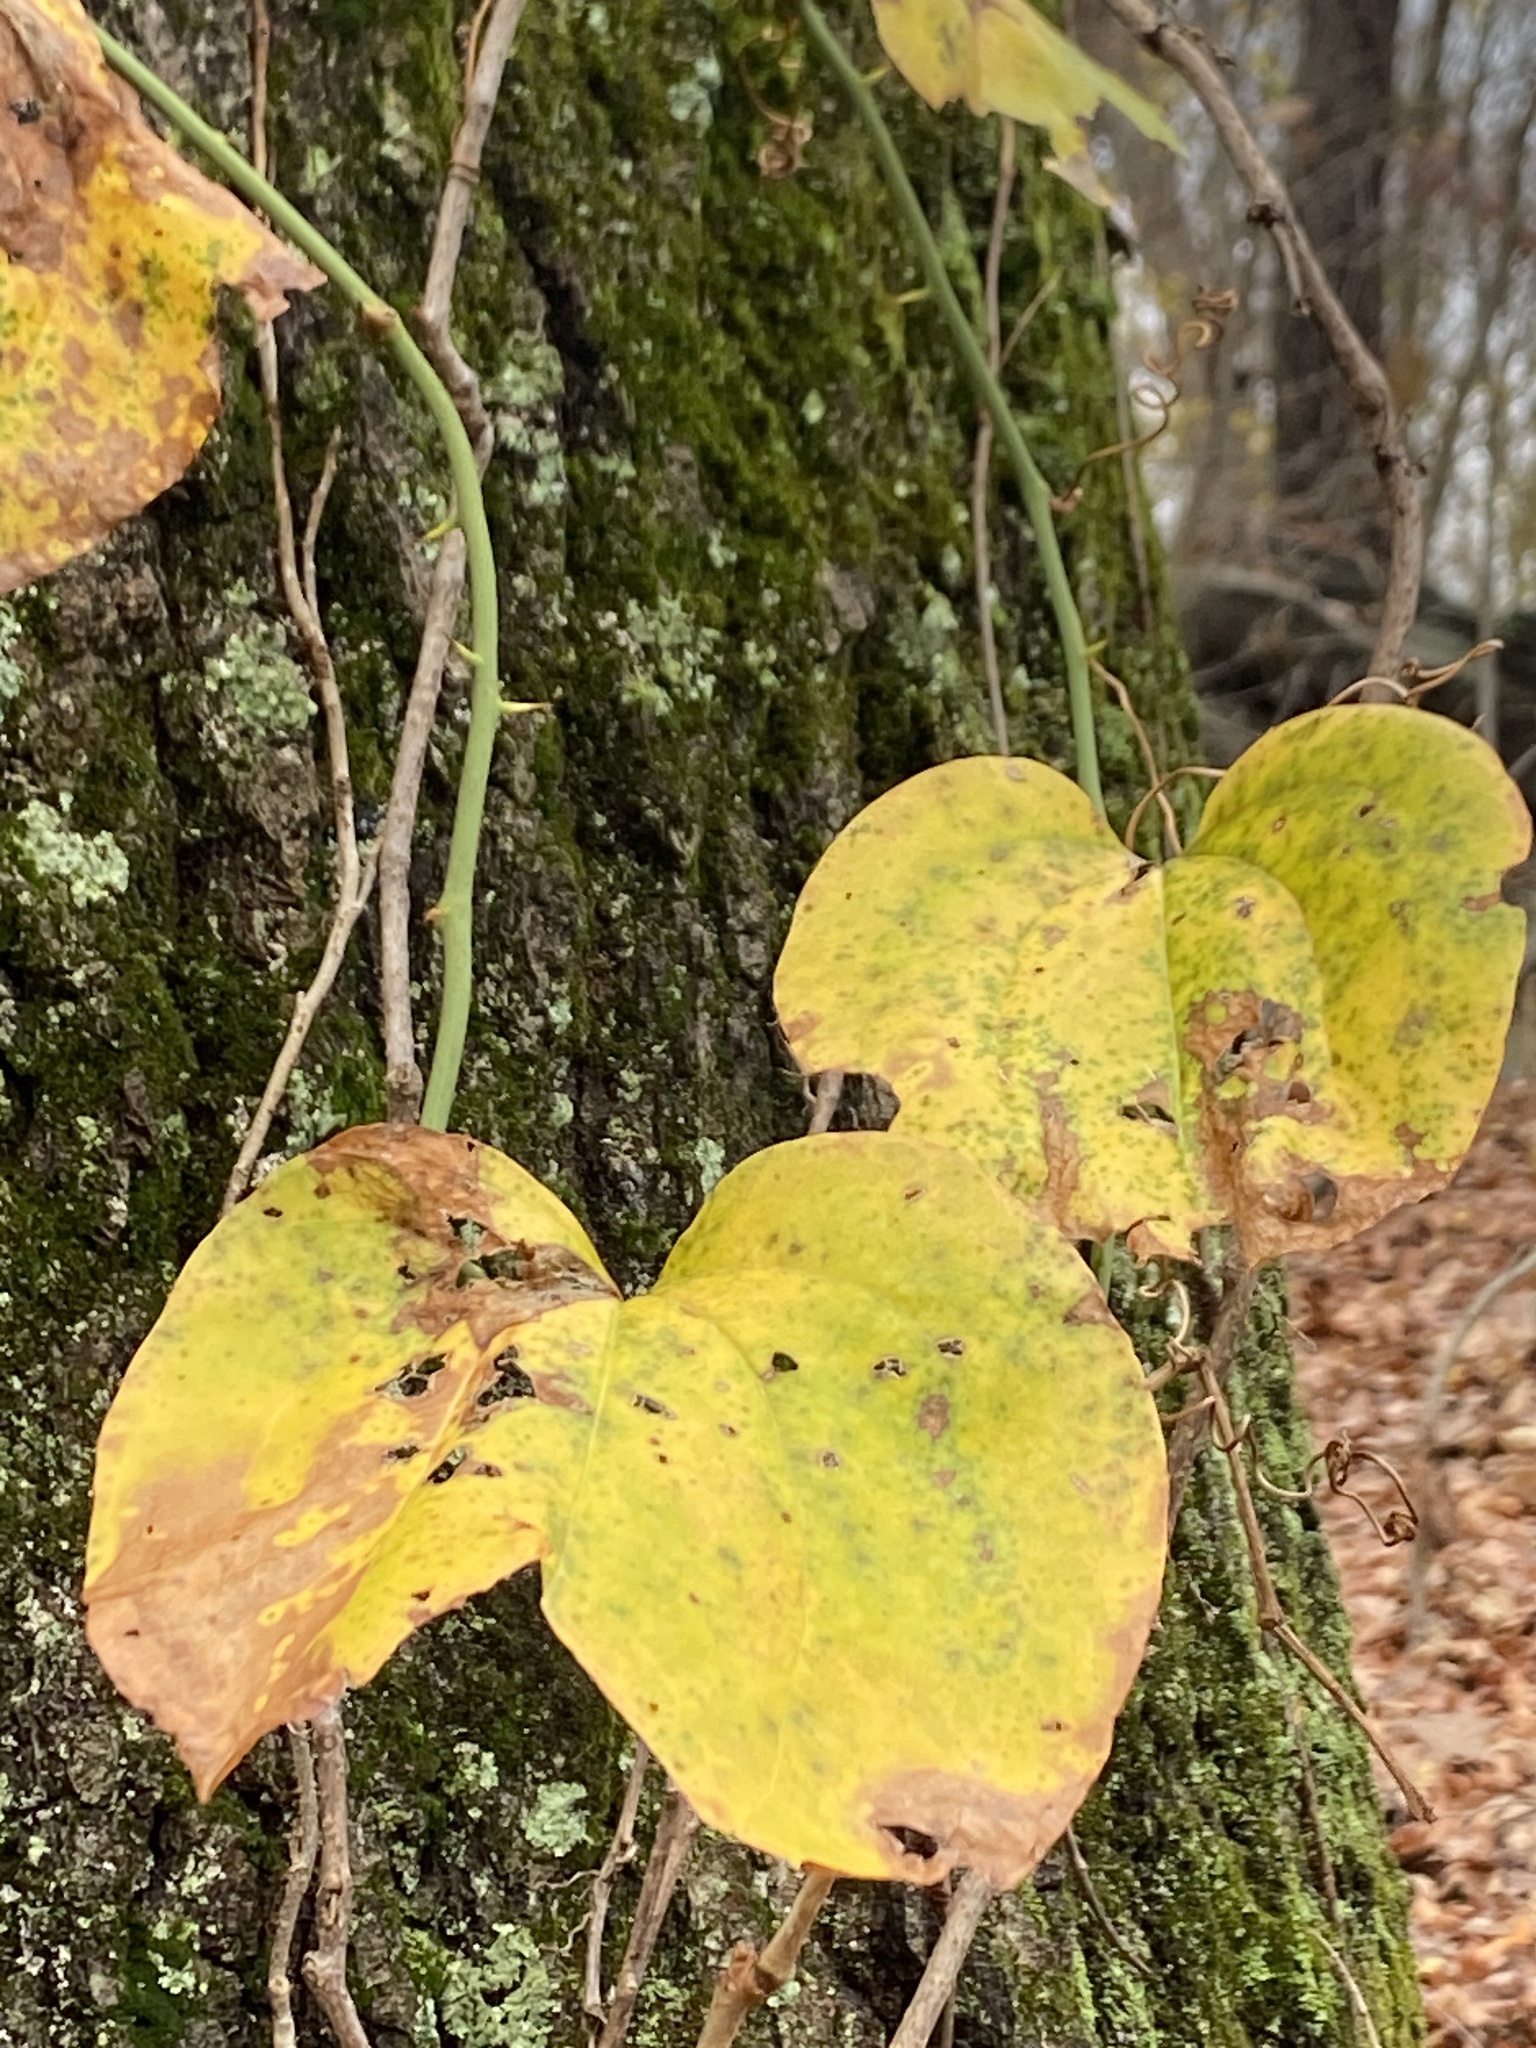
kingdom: Plantae
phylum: Tracheophyta
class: Liliopsida
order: Liliales
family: Smilacaceae
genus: Smilax
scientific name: Smilax rotundifolia
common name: Bullbriar
